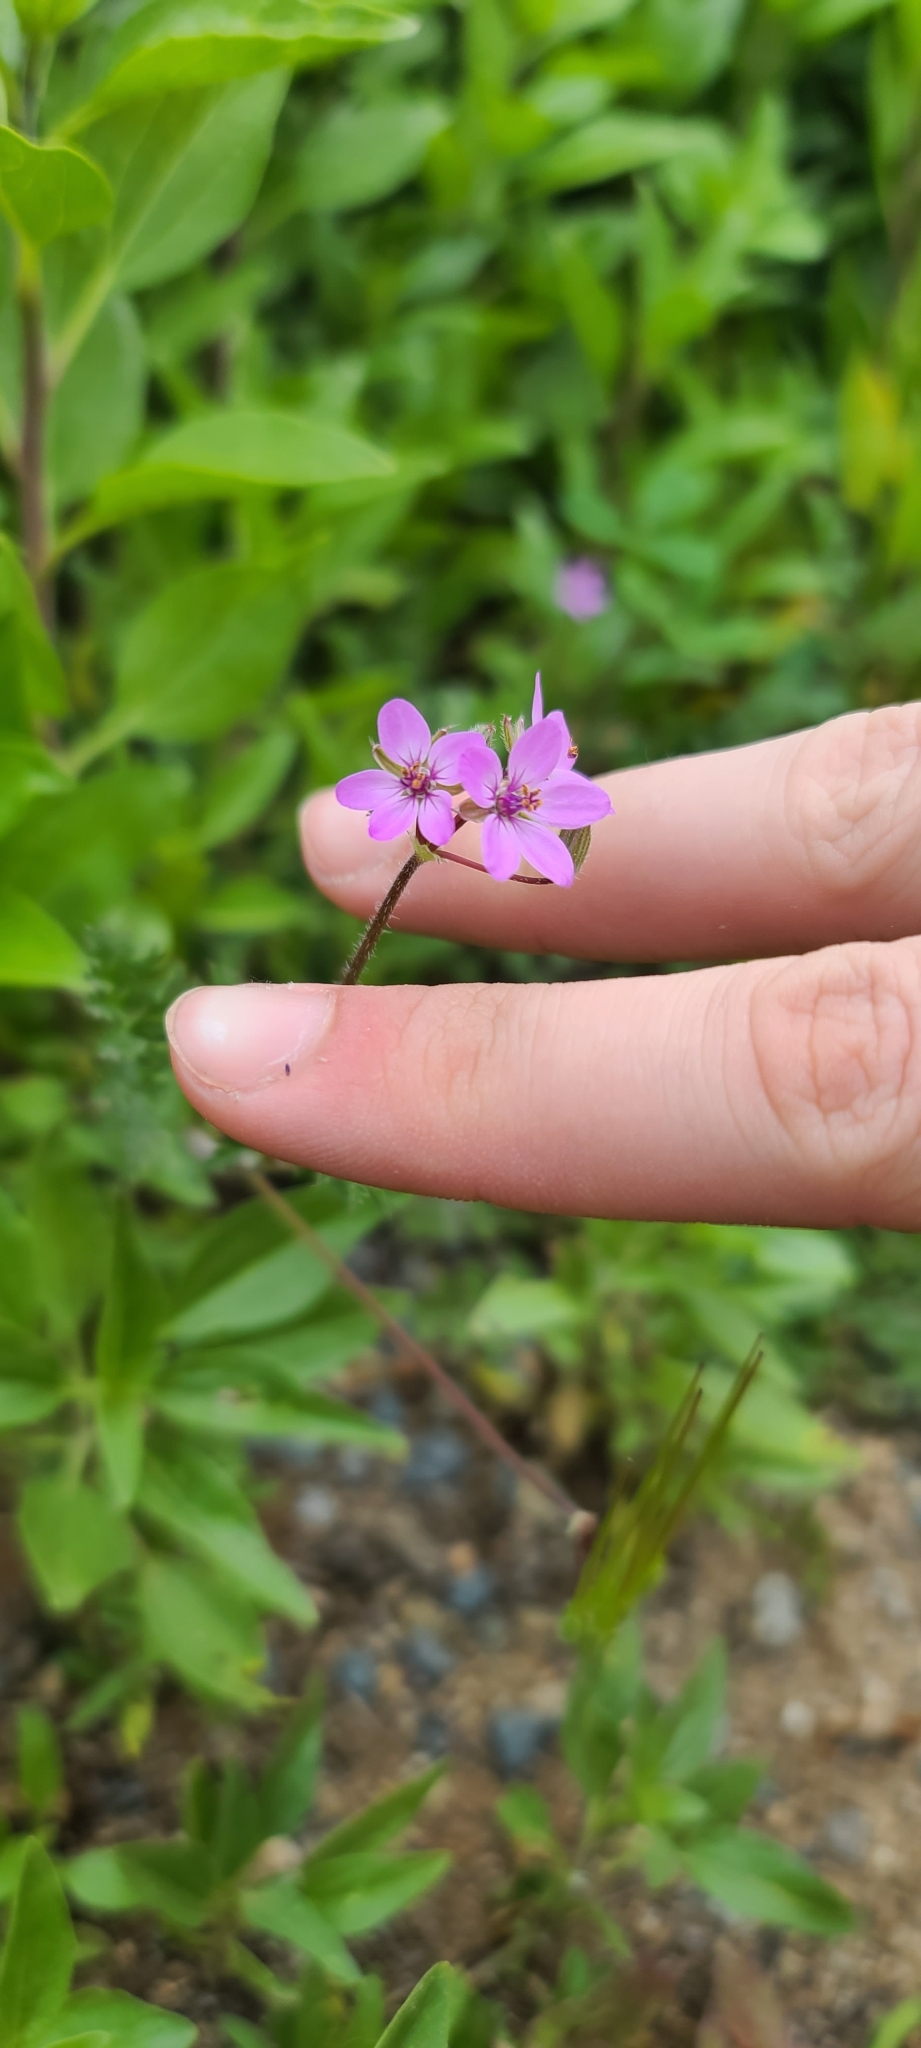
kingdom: Plantae
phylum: Tracheophyta
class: Magnoliopsida
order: Geraniales
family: Geraniaceae
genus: Erodium
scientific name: Erodium cicutarium
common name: Common stork's-bill
